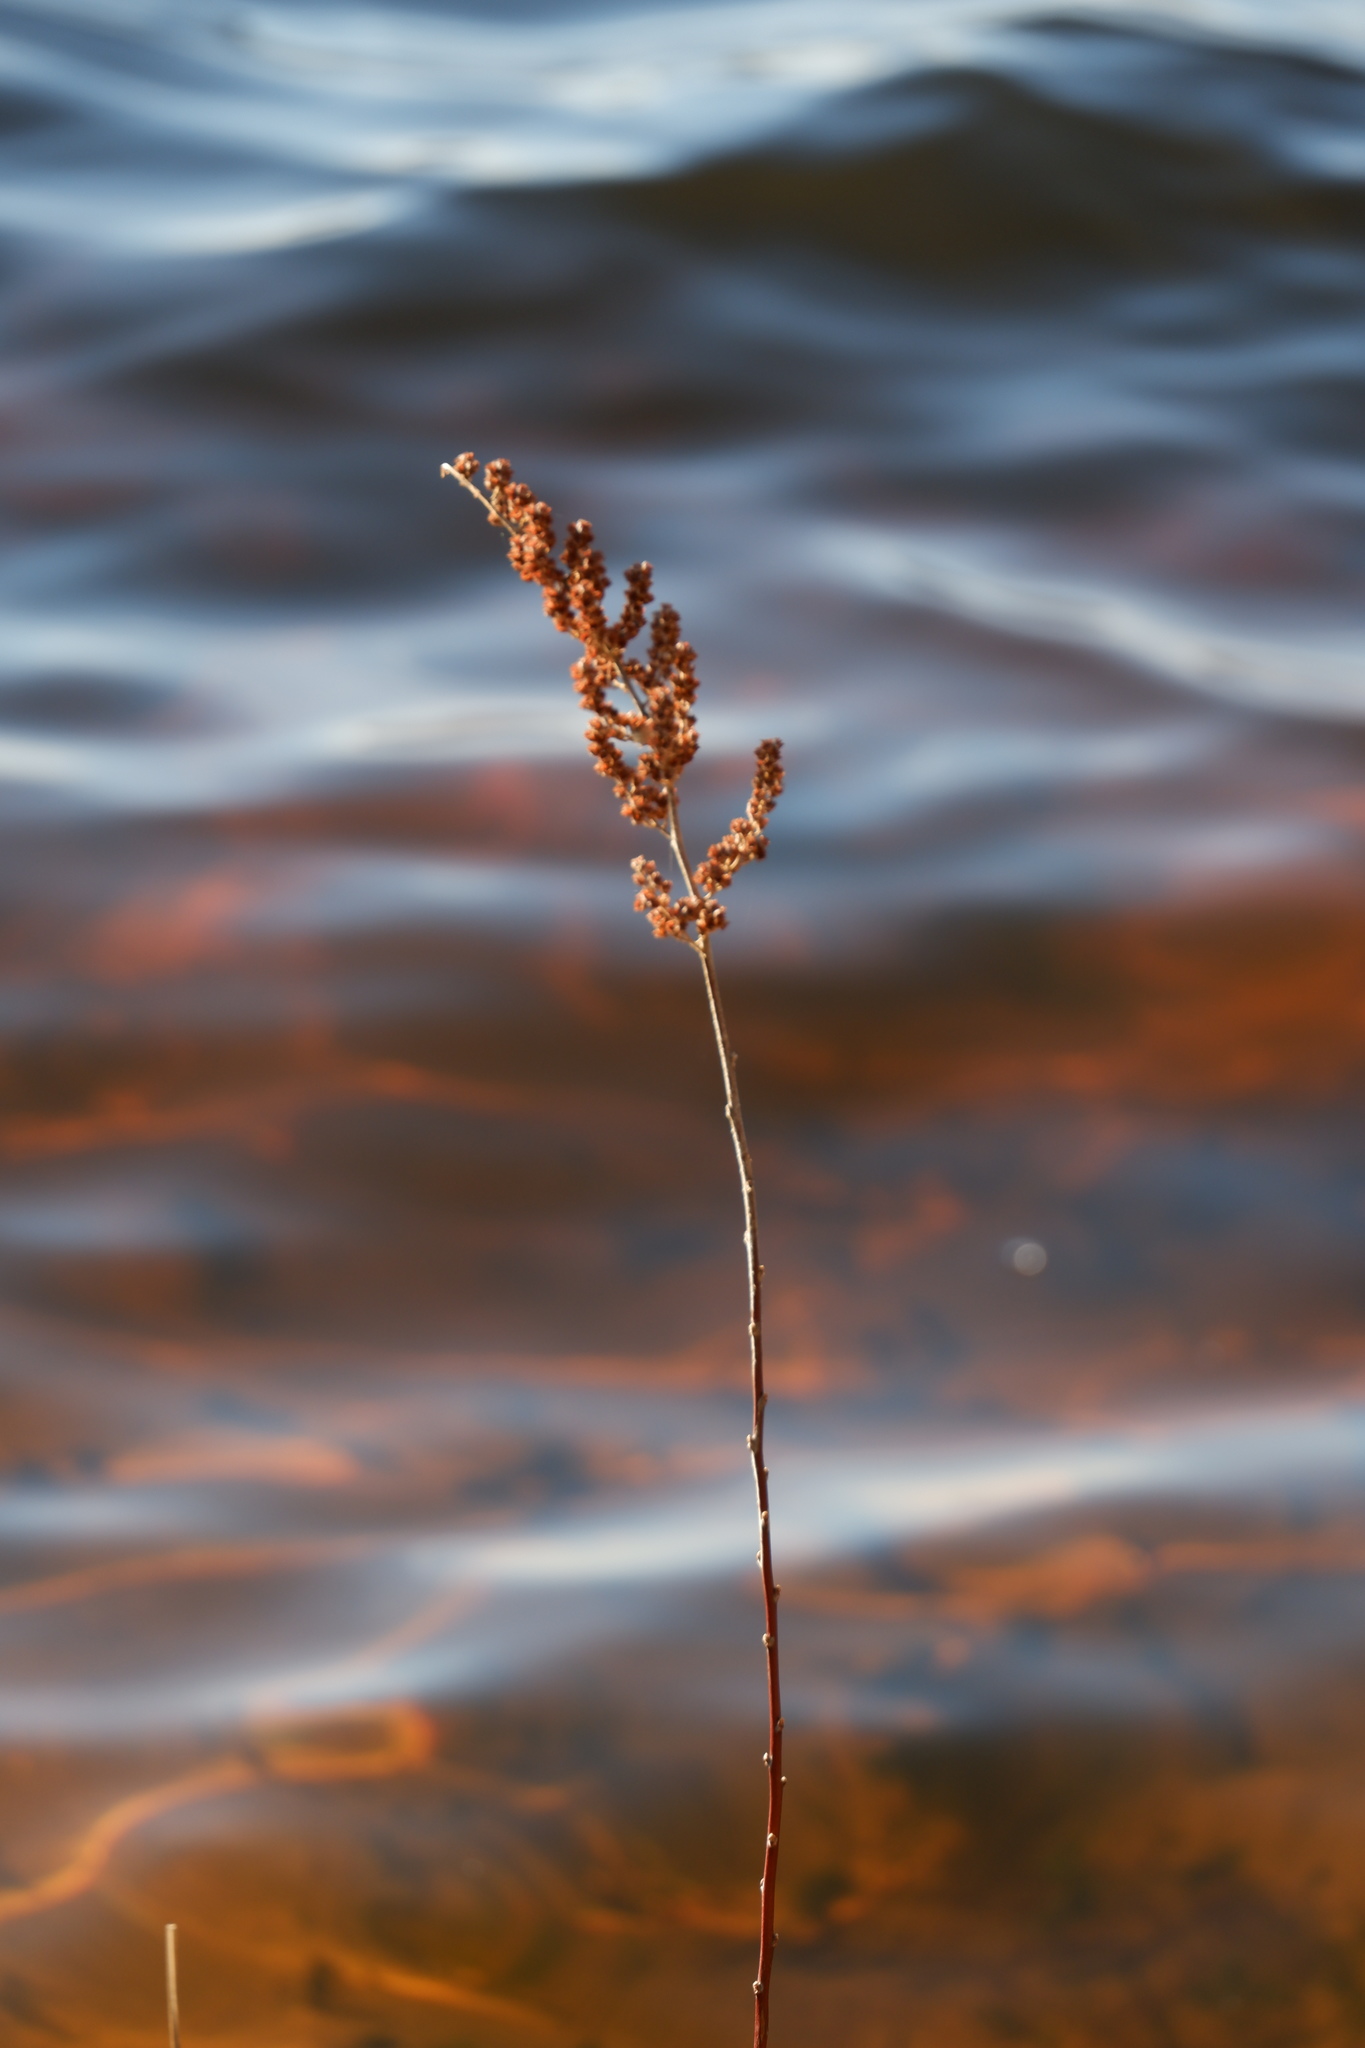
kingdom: Plantae
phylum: Tracheophyta
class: Magnoliopsida
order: Rosales
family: Rosaceae
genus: Spiraea
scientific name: Spiraea tomentosa
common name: Hardhack
